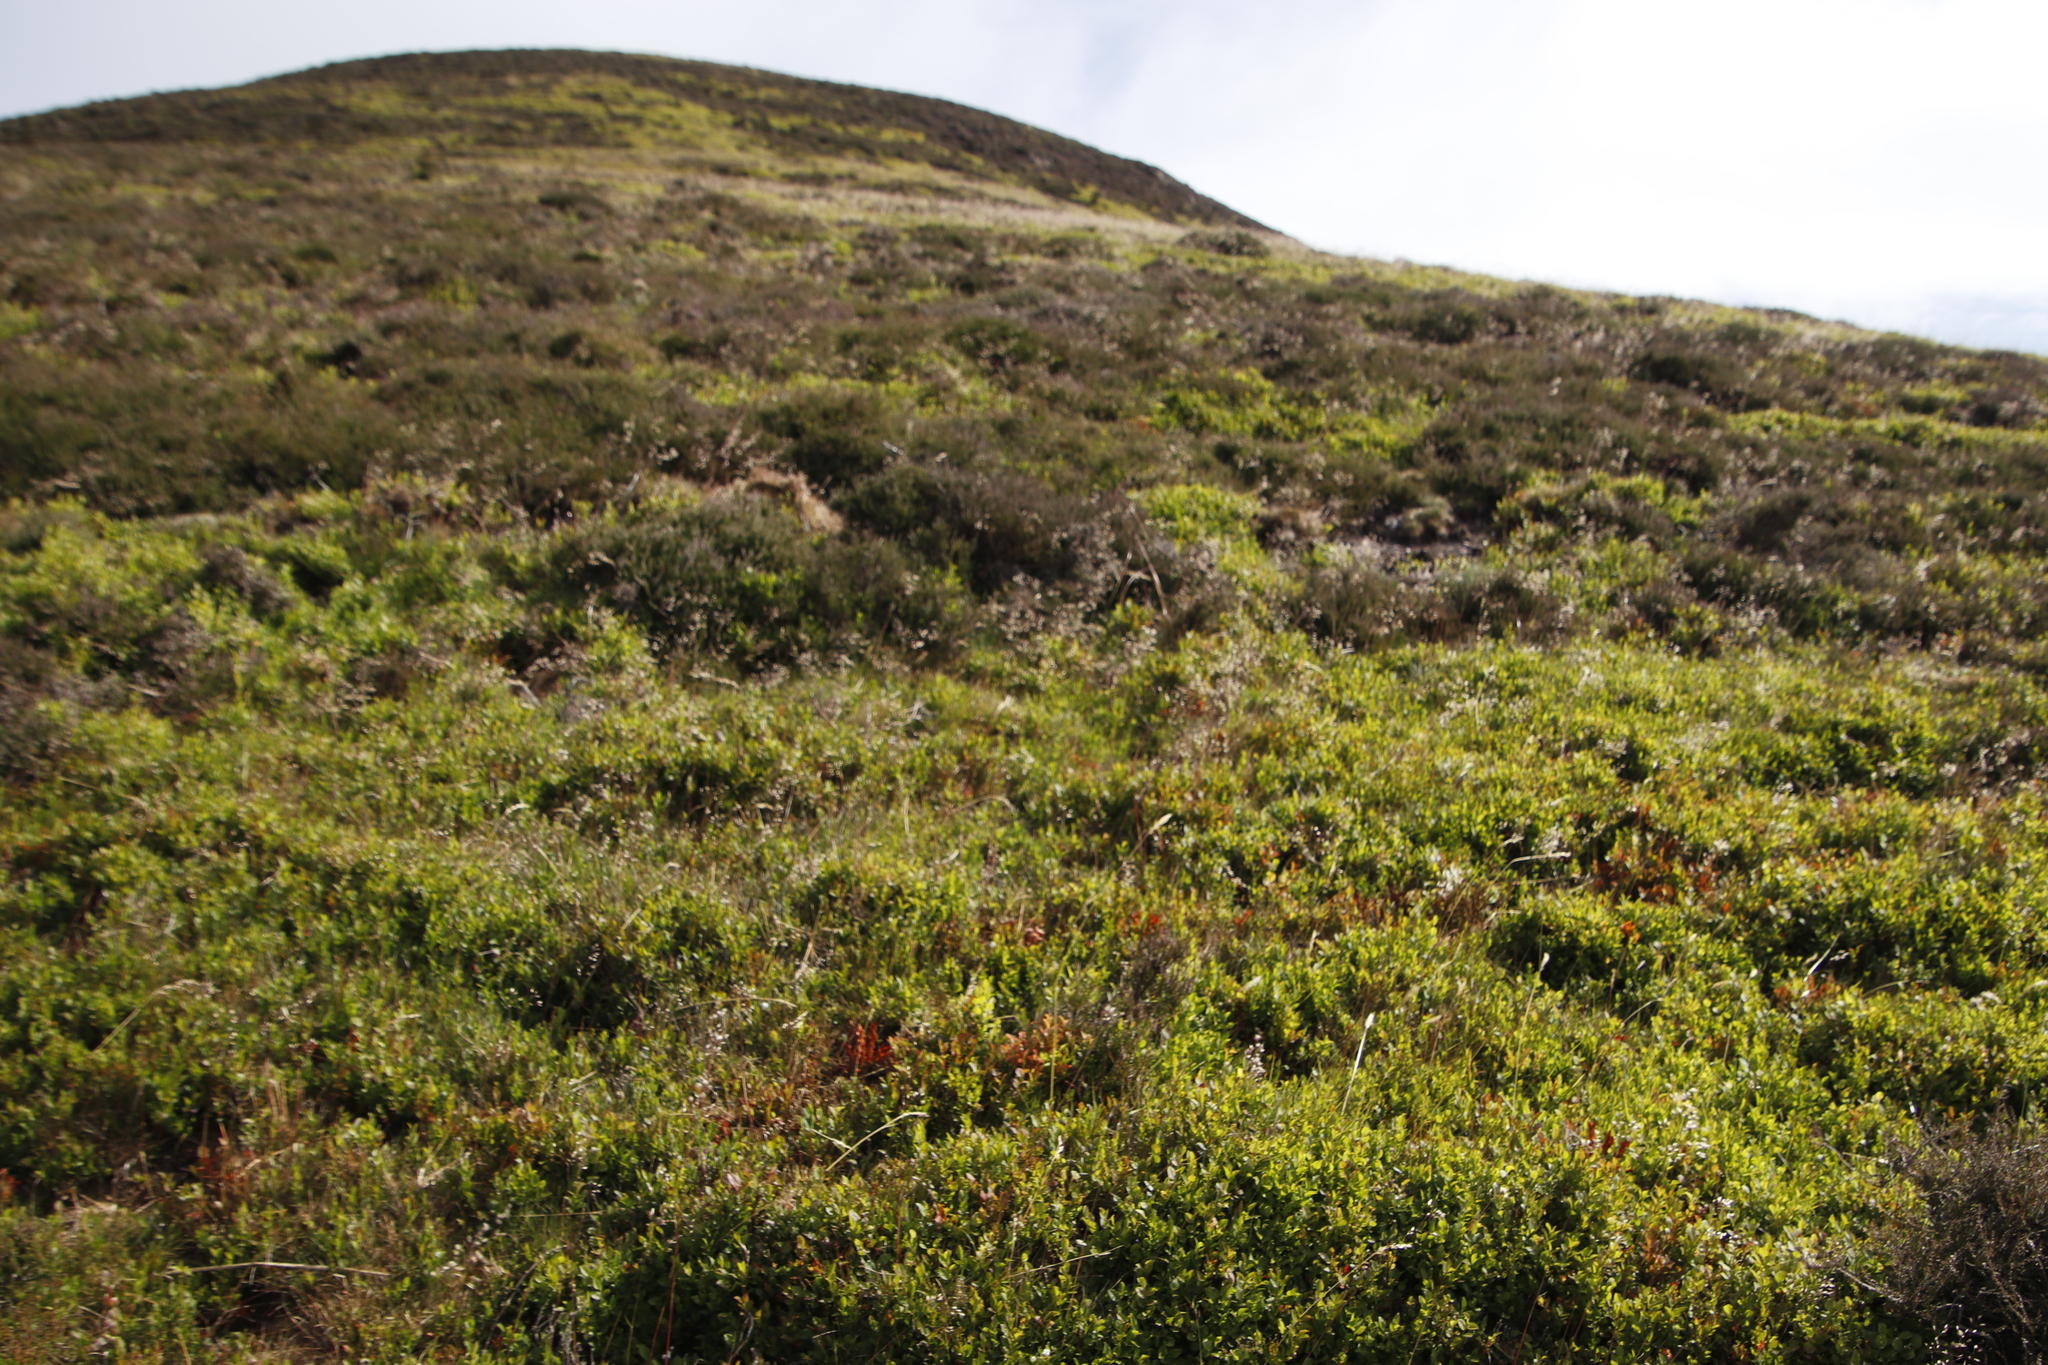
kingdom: Plantae
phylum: Tracheophyta
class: Magnoliopsida
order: Ericales
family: Ericaceae
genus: Vaccinium
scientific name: Vaccinium myrtillus
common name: Bilberry
